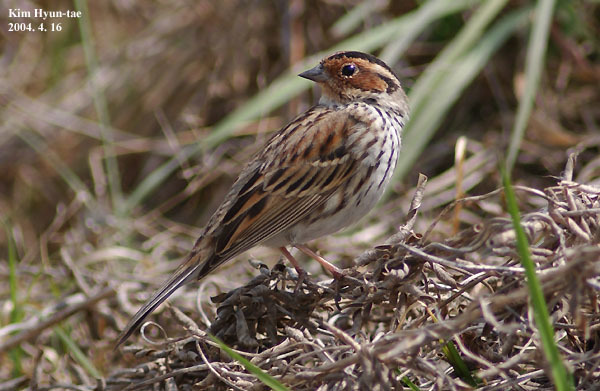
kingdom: Animalia
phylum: Chordata
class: Aves
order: Passeriformes
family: Emberizidae
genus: Emberiza
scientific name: Emberiza pusilla
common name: Little bunting
